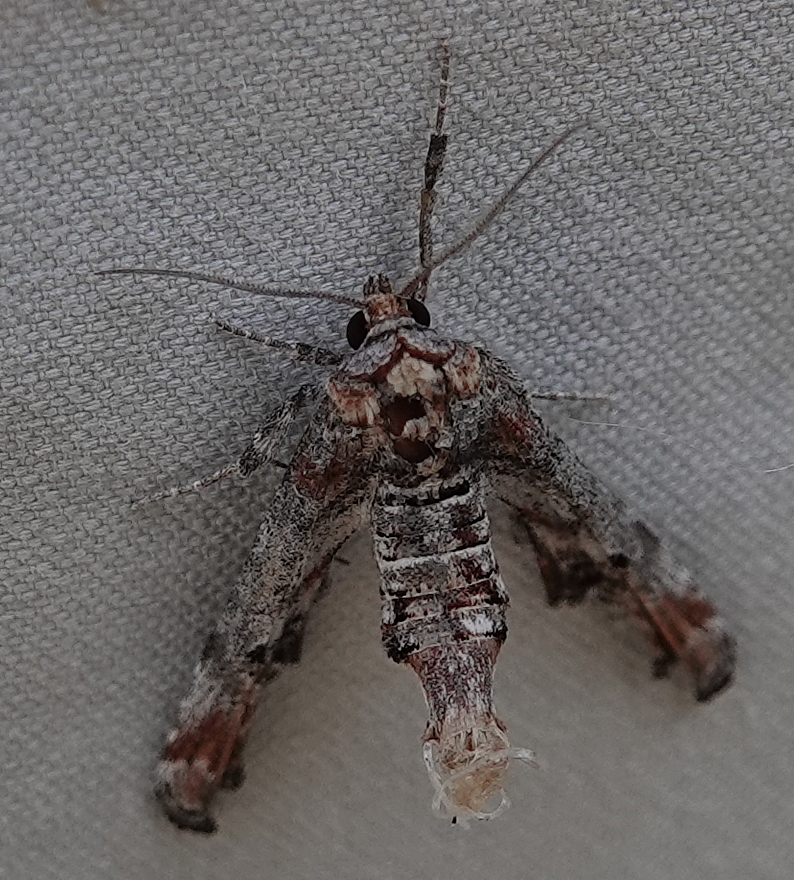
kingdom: Animalia
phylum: Arthropoda
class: Insecta
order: Lepidoptera
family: Euteliidae
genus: Marathyssa
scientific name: Marathyssa inficita
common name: Dark marathyssa moth
